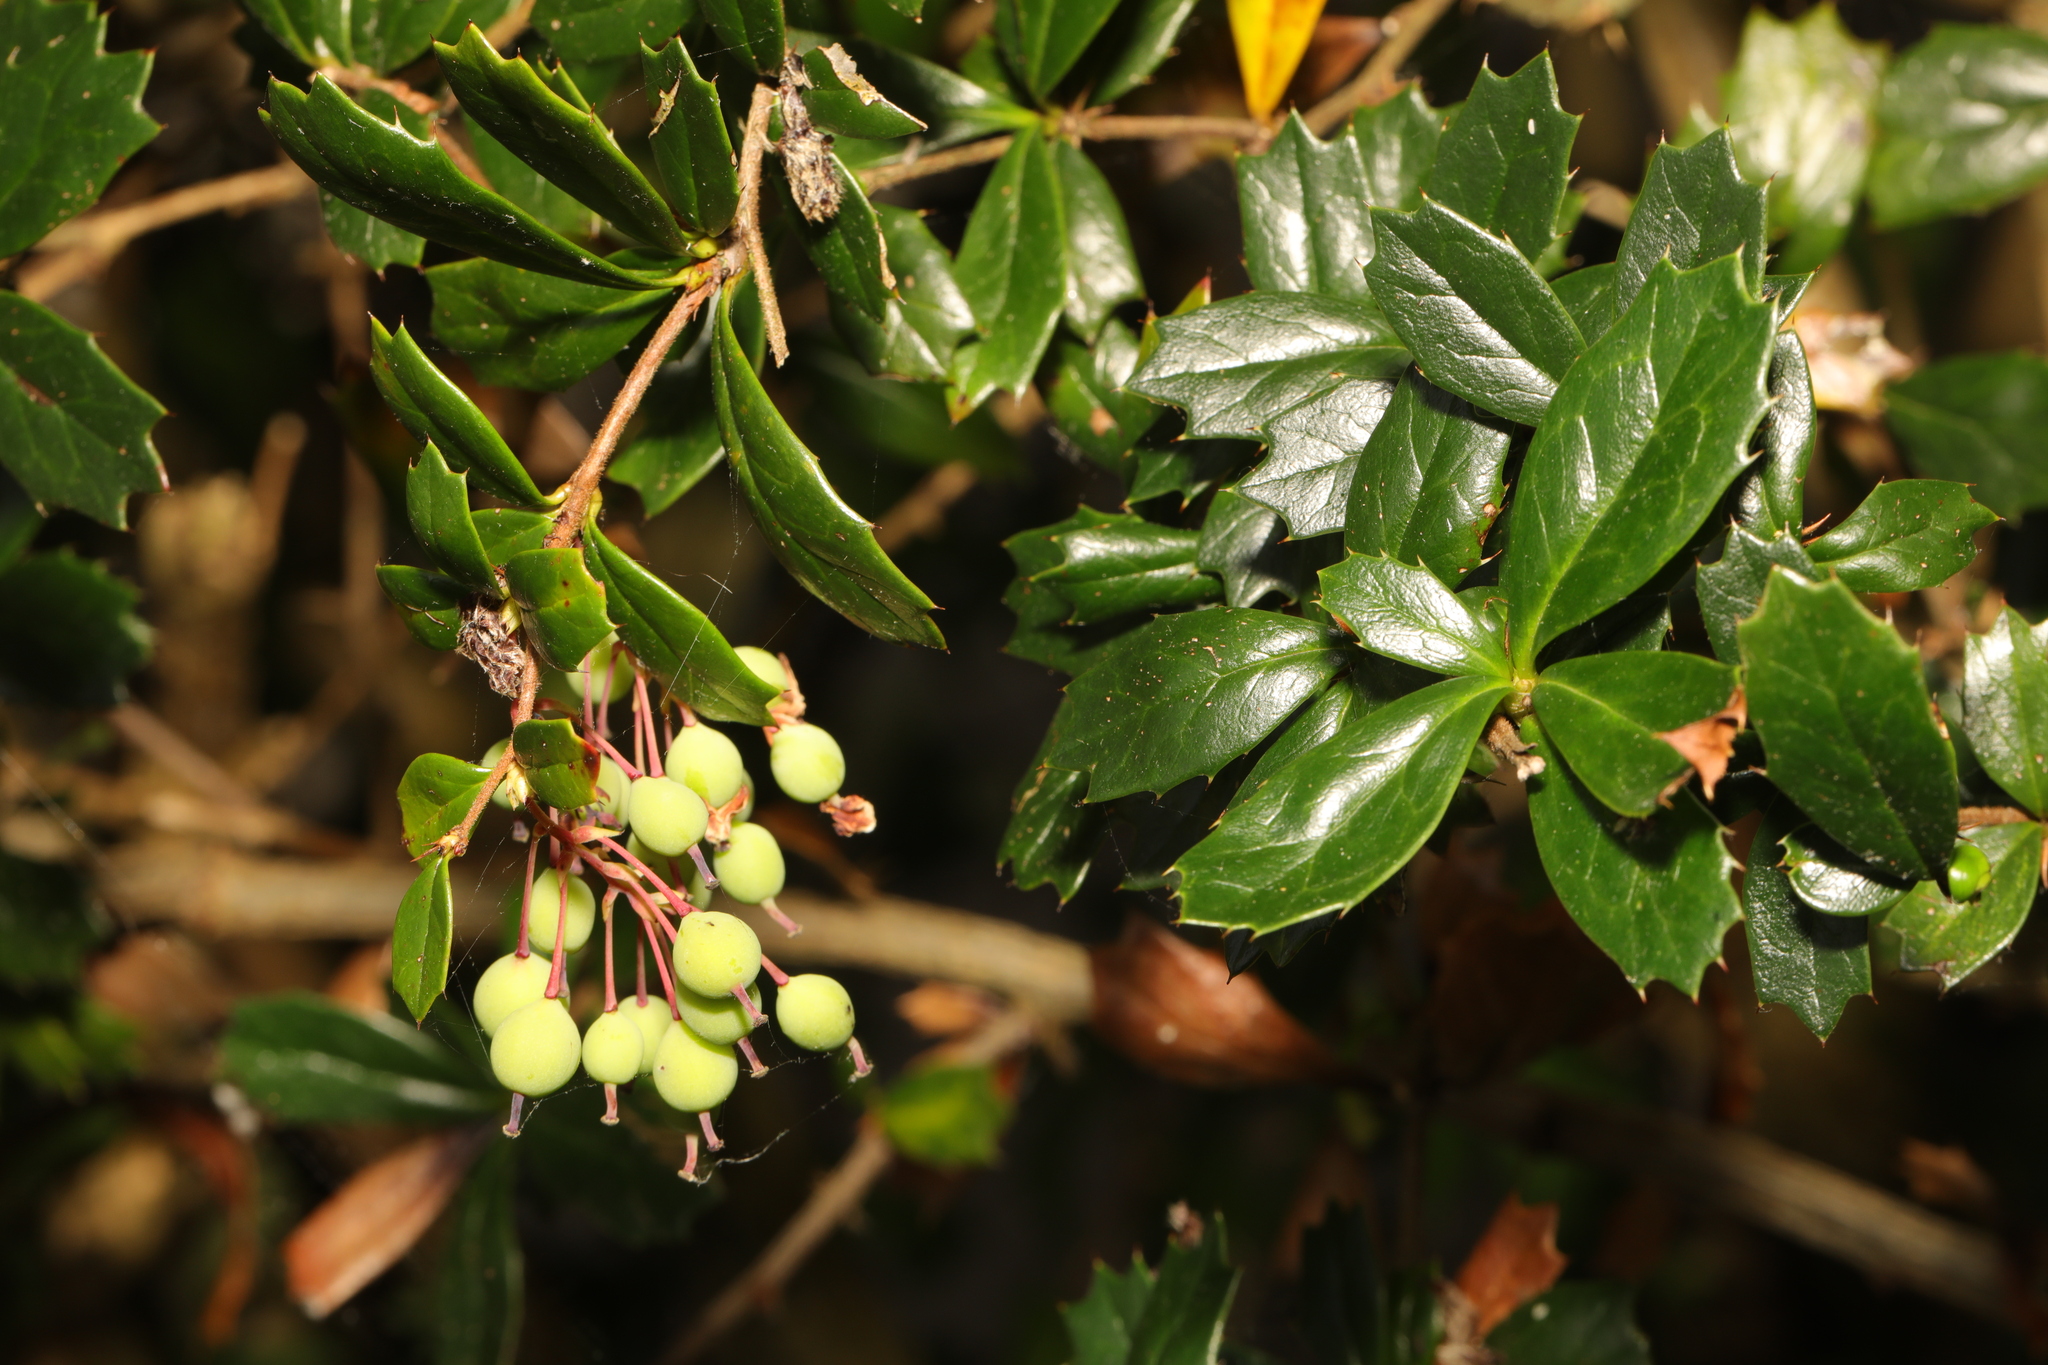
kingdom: Plantae
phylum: Tracheophyta
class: Magnoliopsida
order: Ranunculales
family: Berberidaceae
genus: Berberis
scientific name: Berberis darwinii
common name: Darwin's barberry
